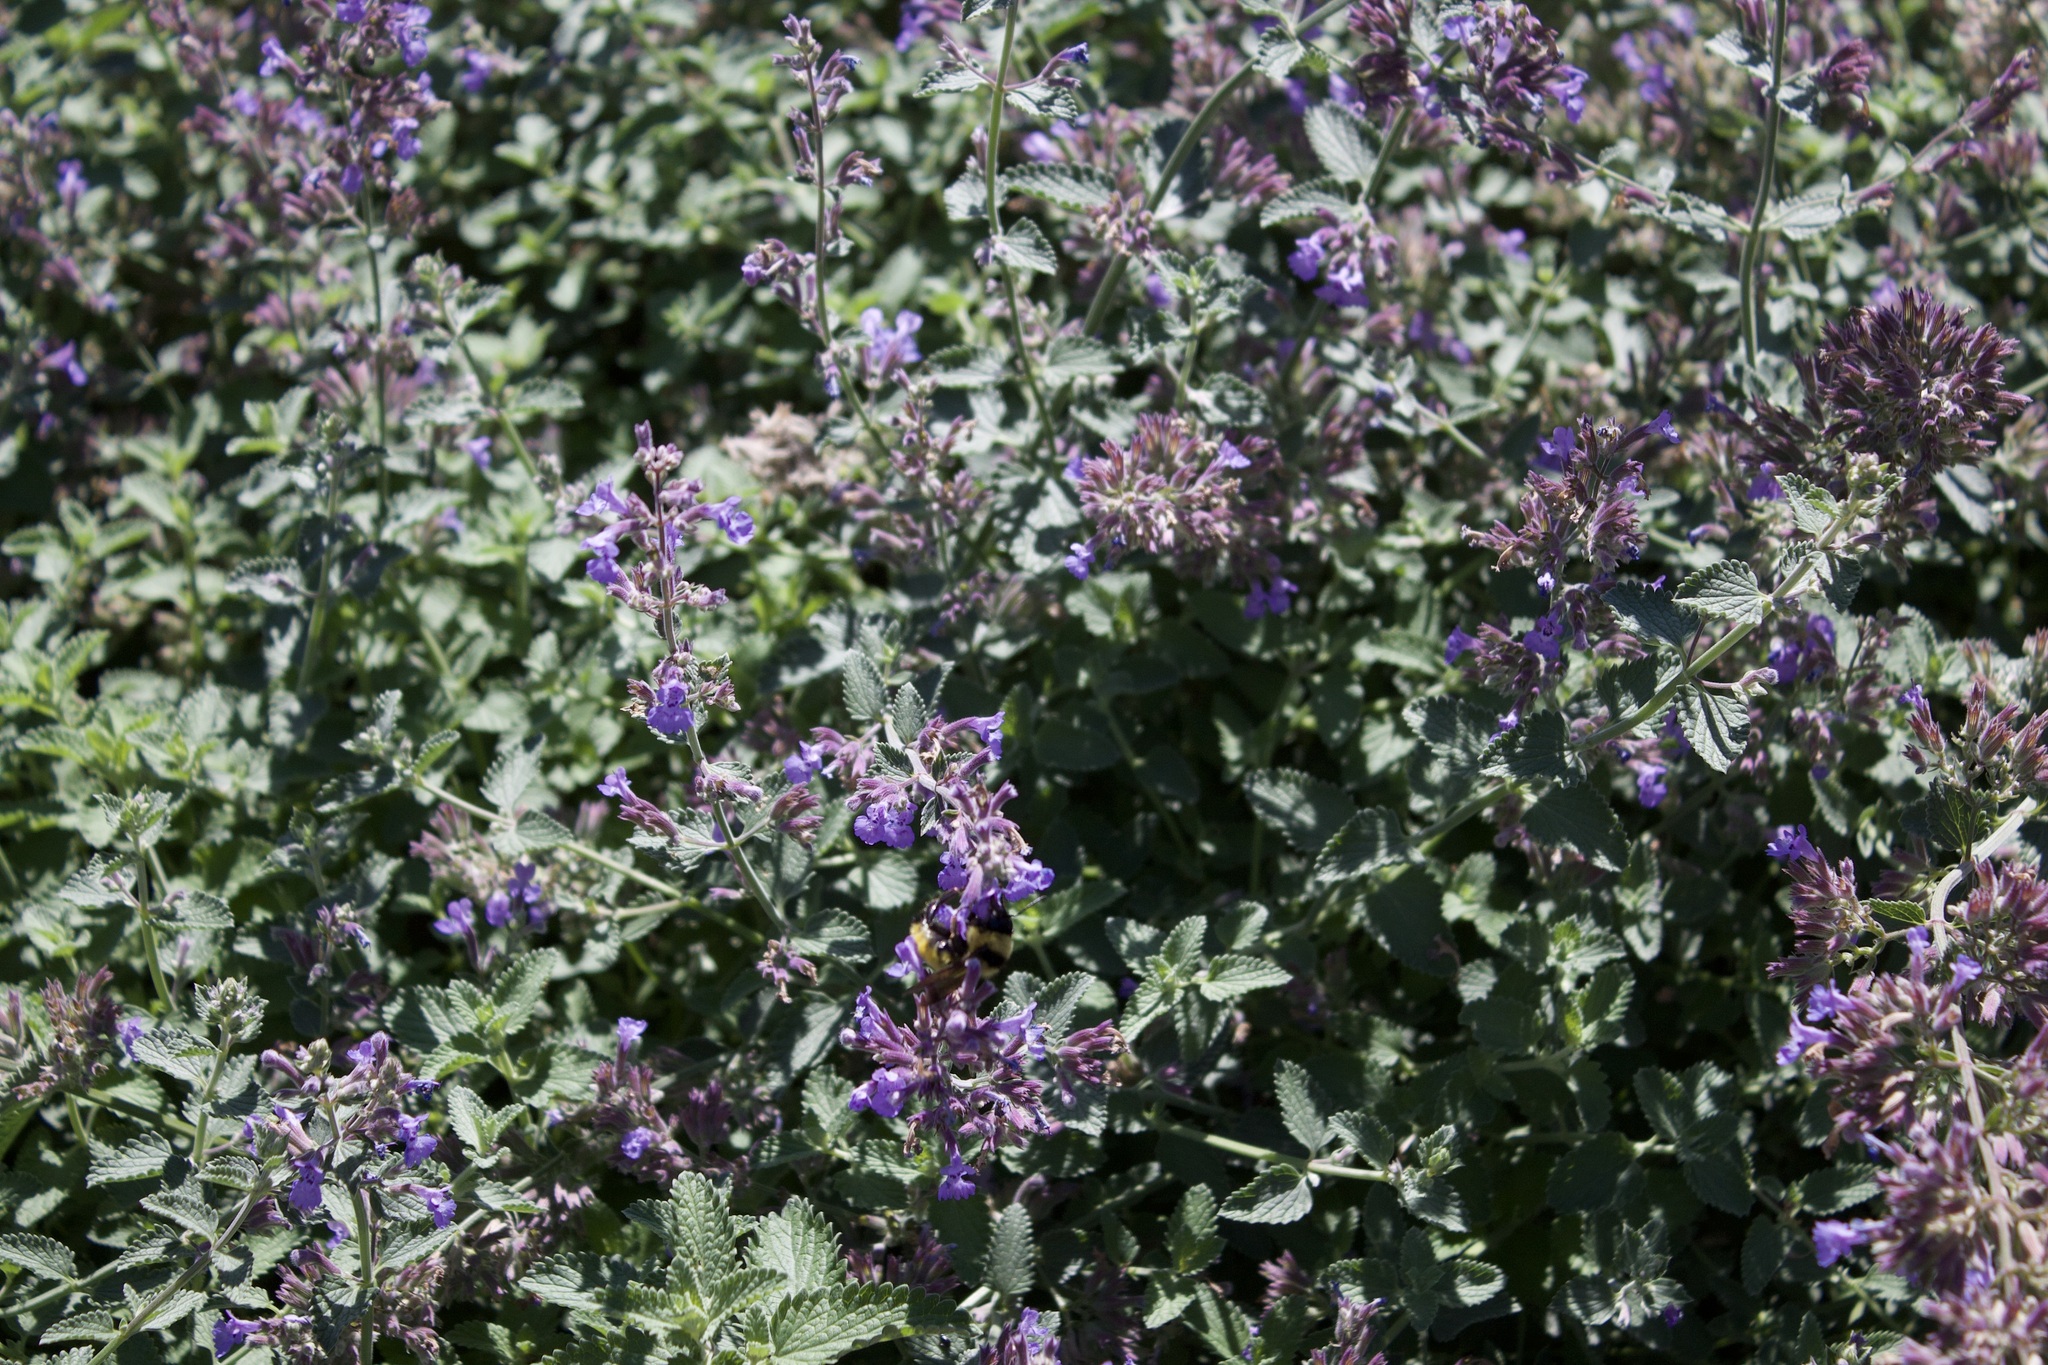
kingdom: Animalia
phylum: Arthropoda
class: Insecta
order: Hymenoptera
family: Apidae
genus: Bombus
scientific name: Bombus fervidus
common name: Yellow bumble bee
